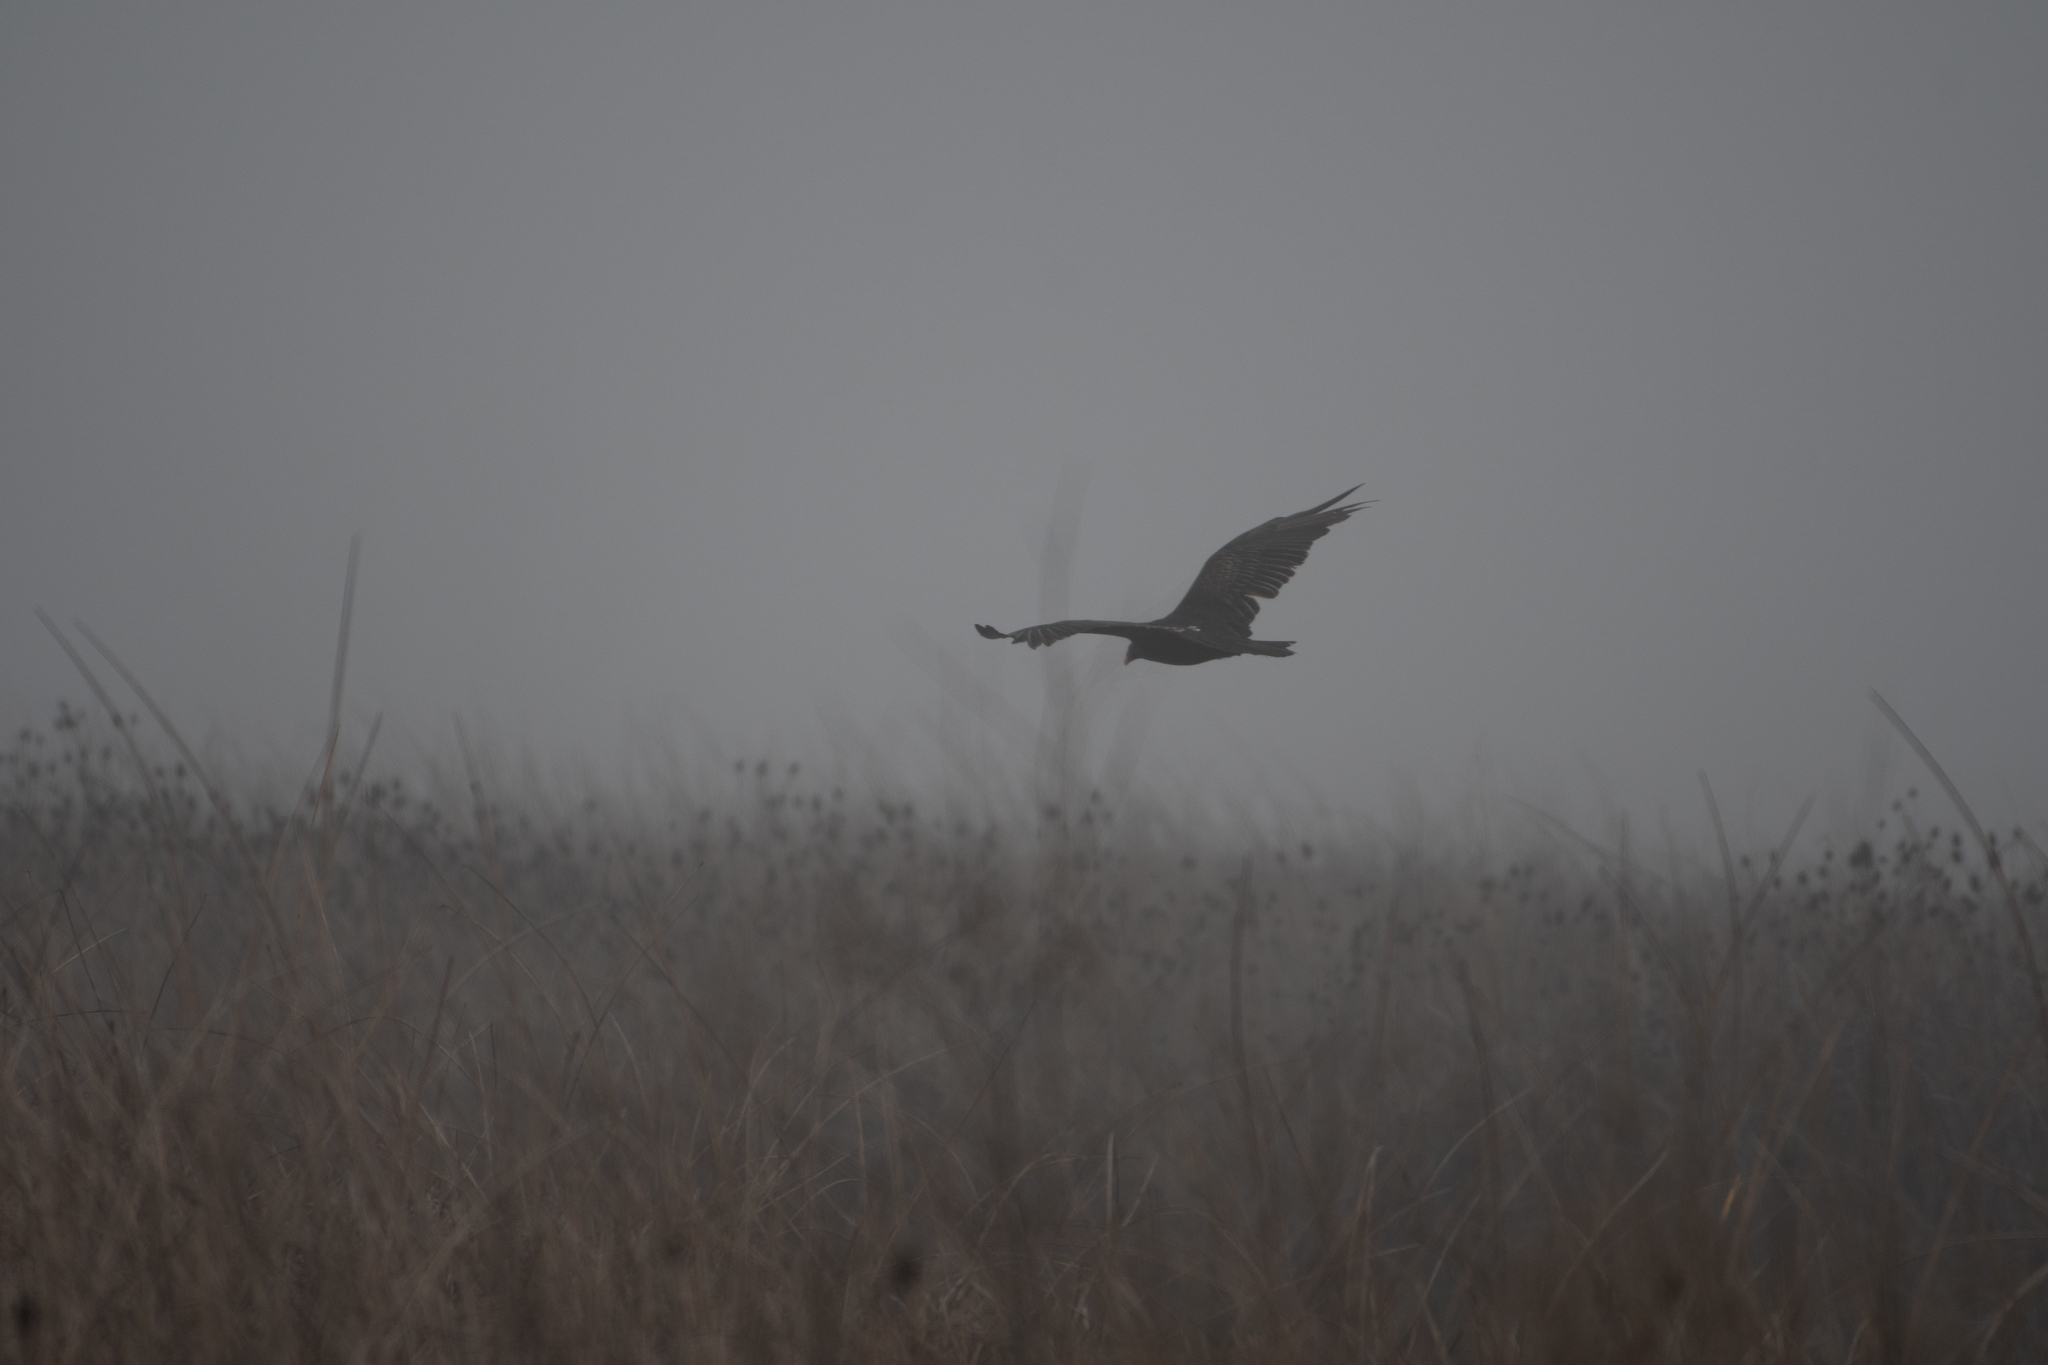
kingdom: Animalia
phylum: Chordata
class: Aves
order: Accipitriformes
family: Cathartidae
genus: Cathartes
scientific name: Cathartes aura
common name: Turkey vulture
